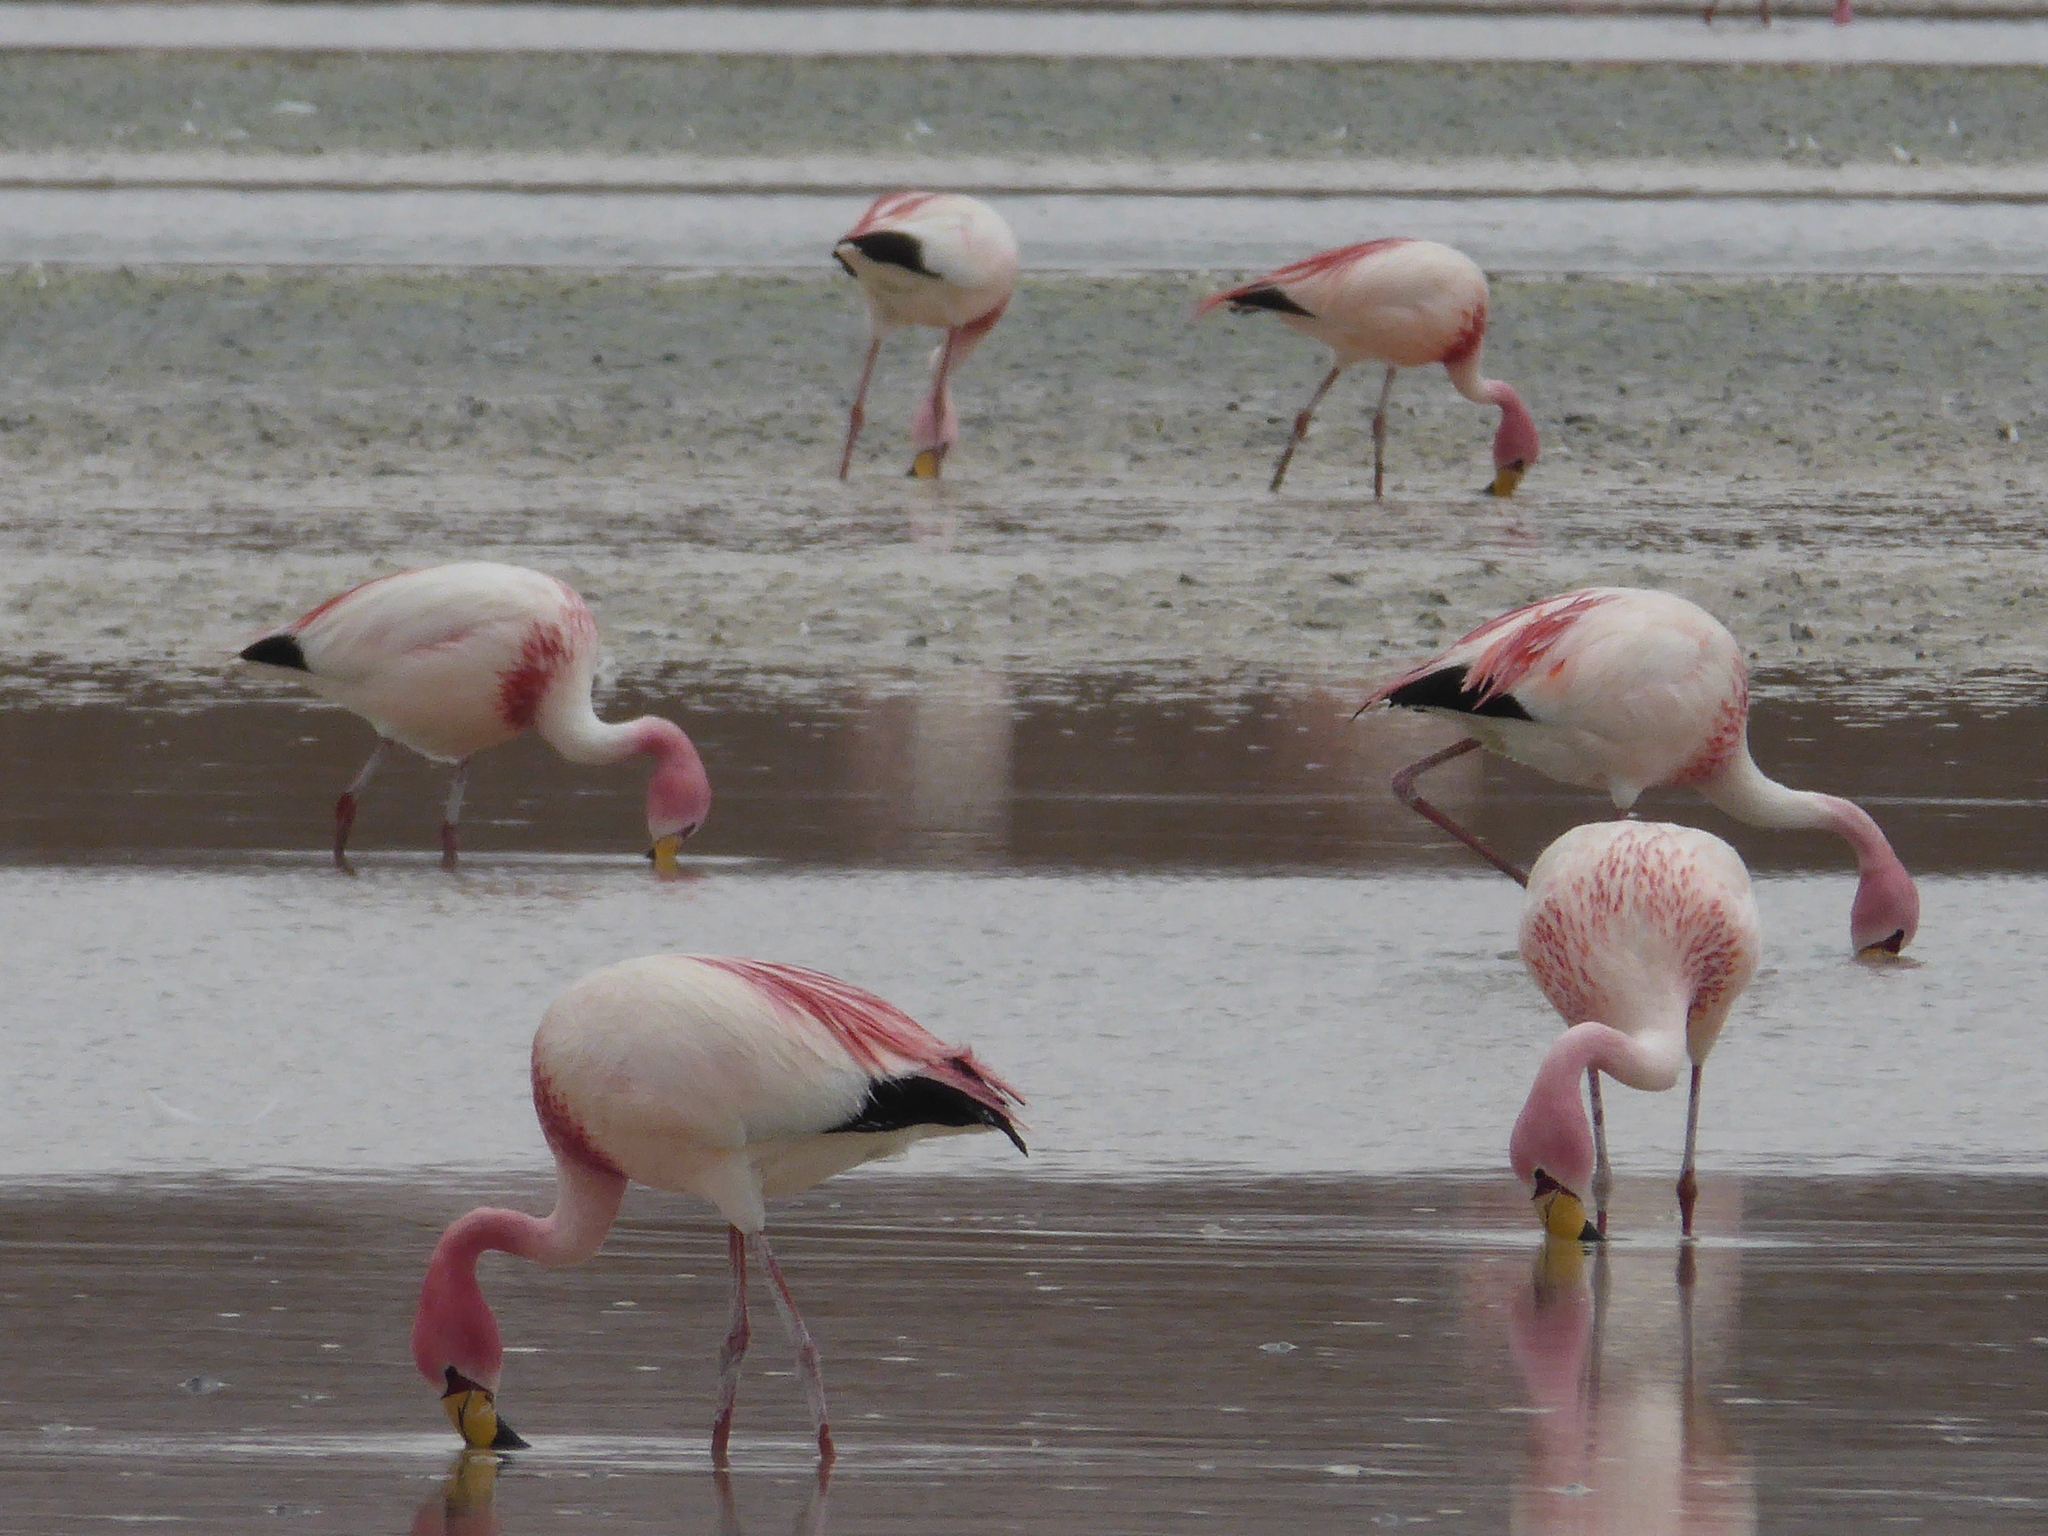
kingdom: Animalia
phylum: Chordata
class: Aves
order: Phoenicopteriformes
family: Phoenicopteridae
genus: Phoenicoparrus
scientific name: Phoenicoparrus jamesi
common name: James's flamingo
